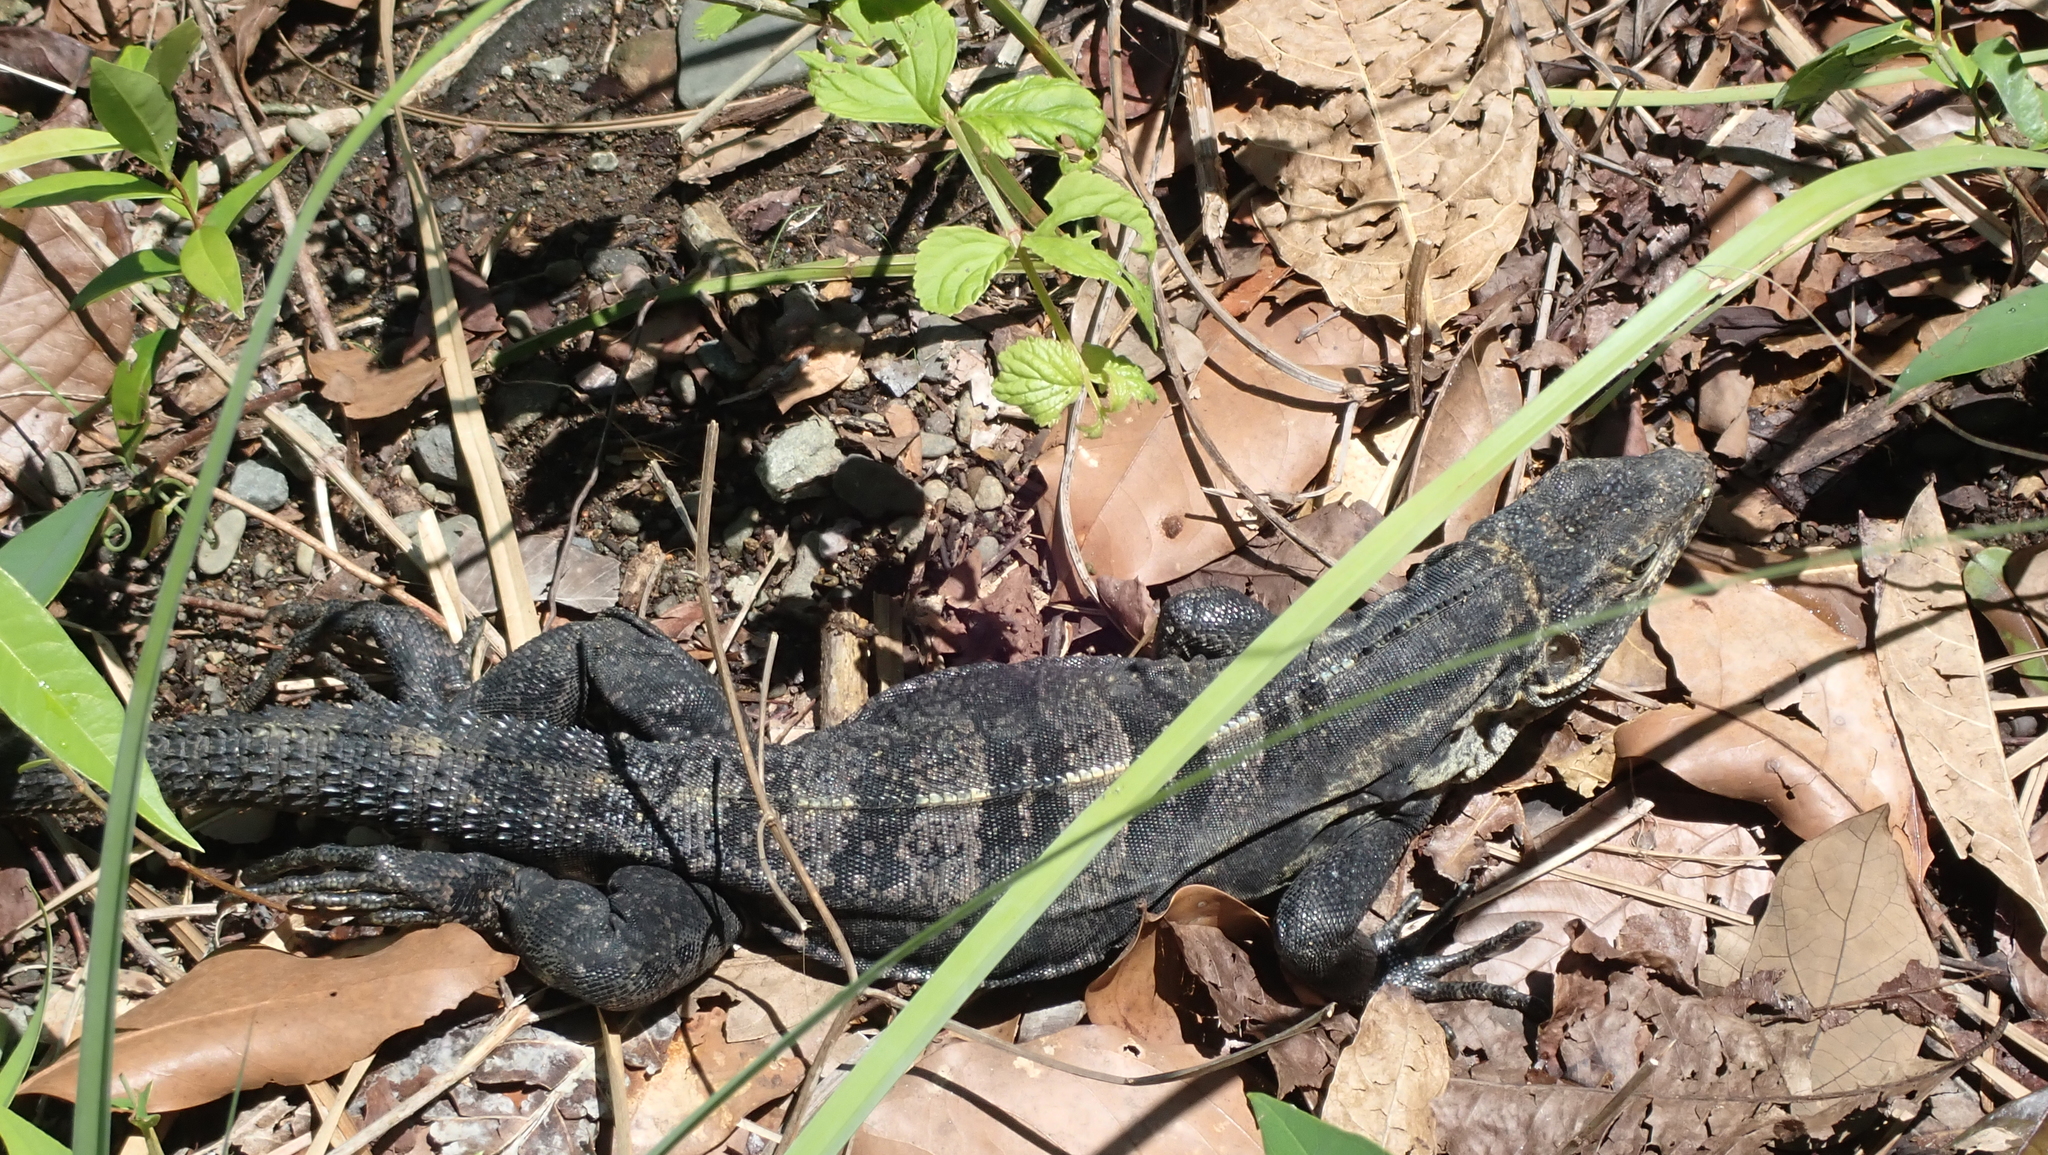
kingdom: Animalia
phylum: Chordata
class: Squamata
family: Iguanidae
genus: Ctenosaura
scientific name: Ctenosaura similis
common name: Black spiny-tailed iguana
